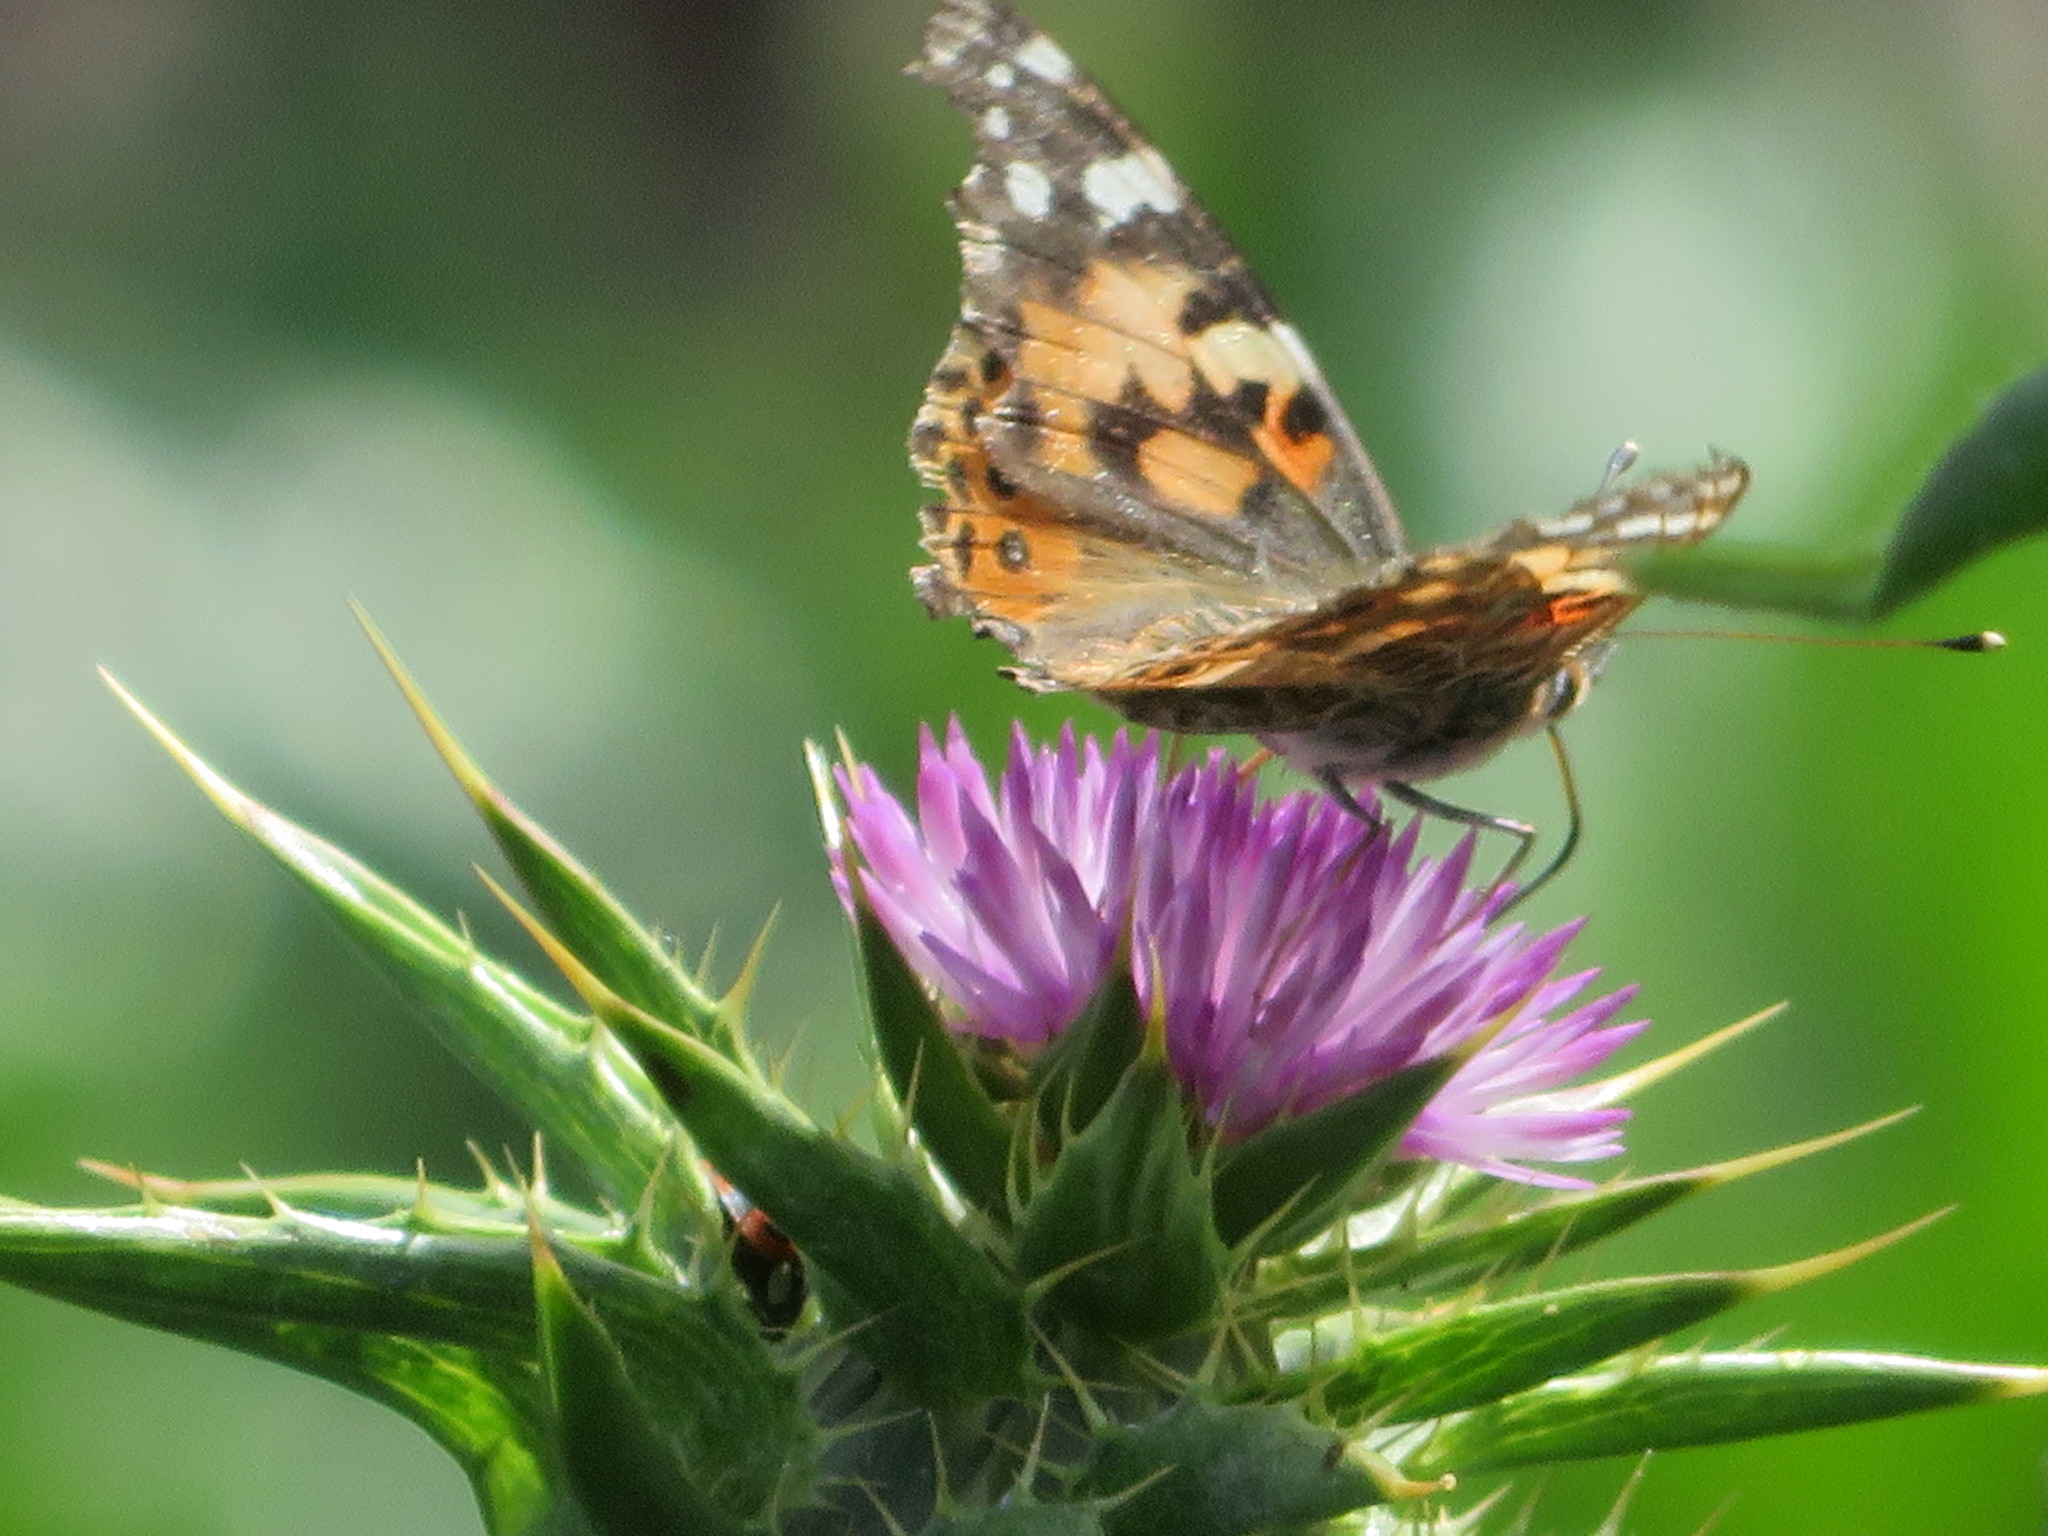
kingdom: Animalia
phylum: Arthropoda
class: Insecta
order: Lepidoptera
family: Nymphalidae
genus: Vanessa
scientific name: Vanessa cardui
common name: Painted lady
